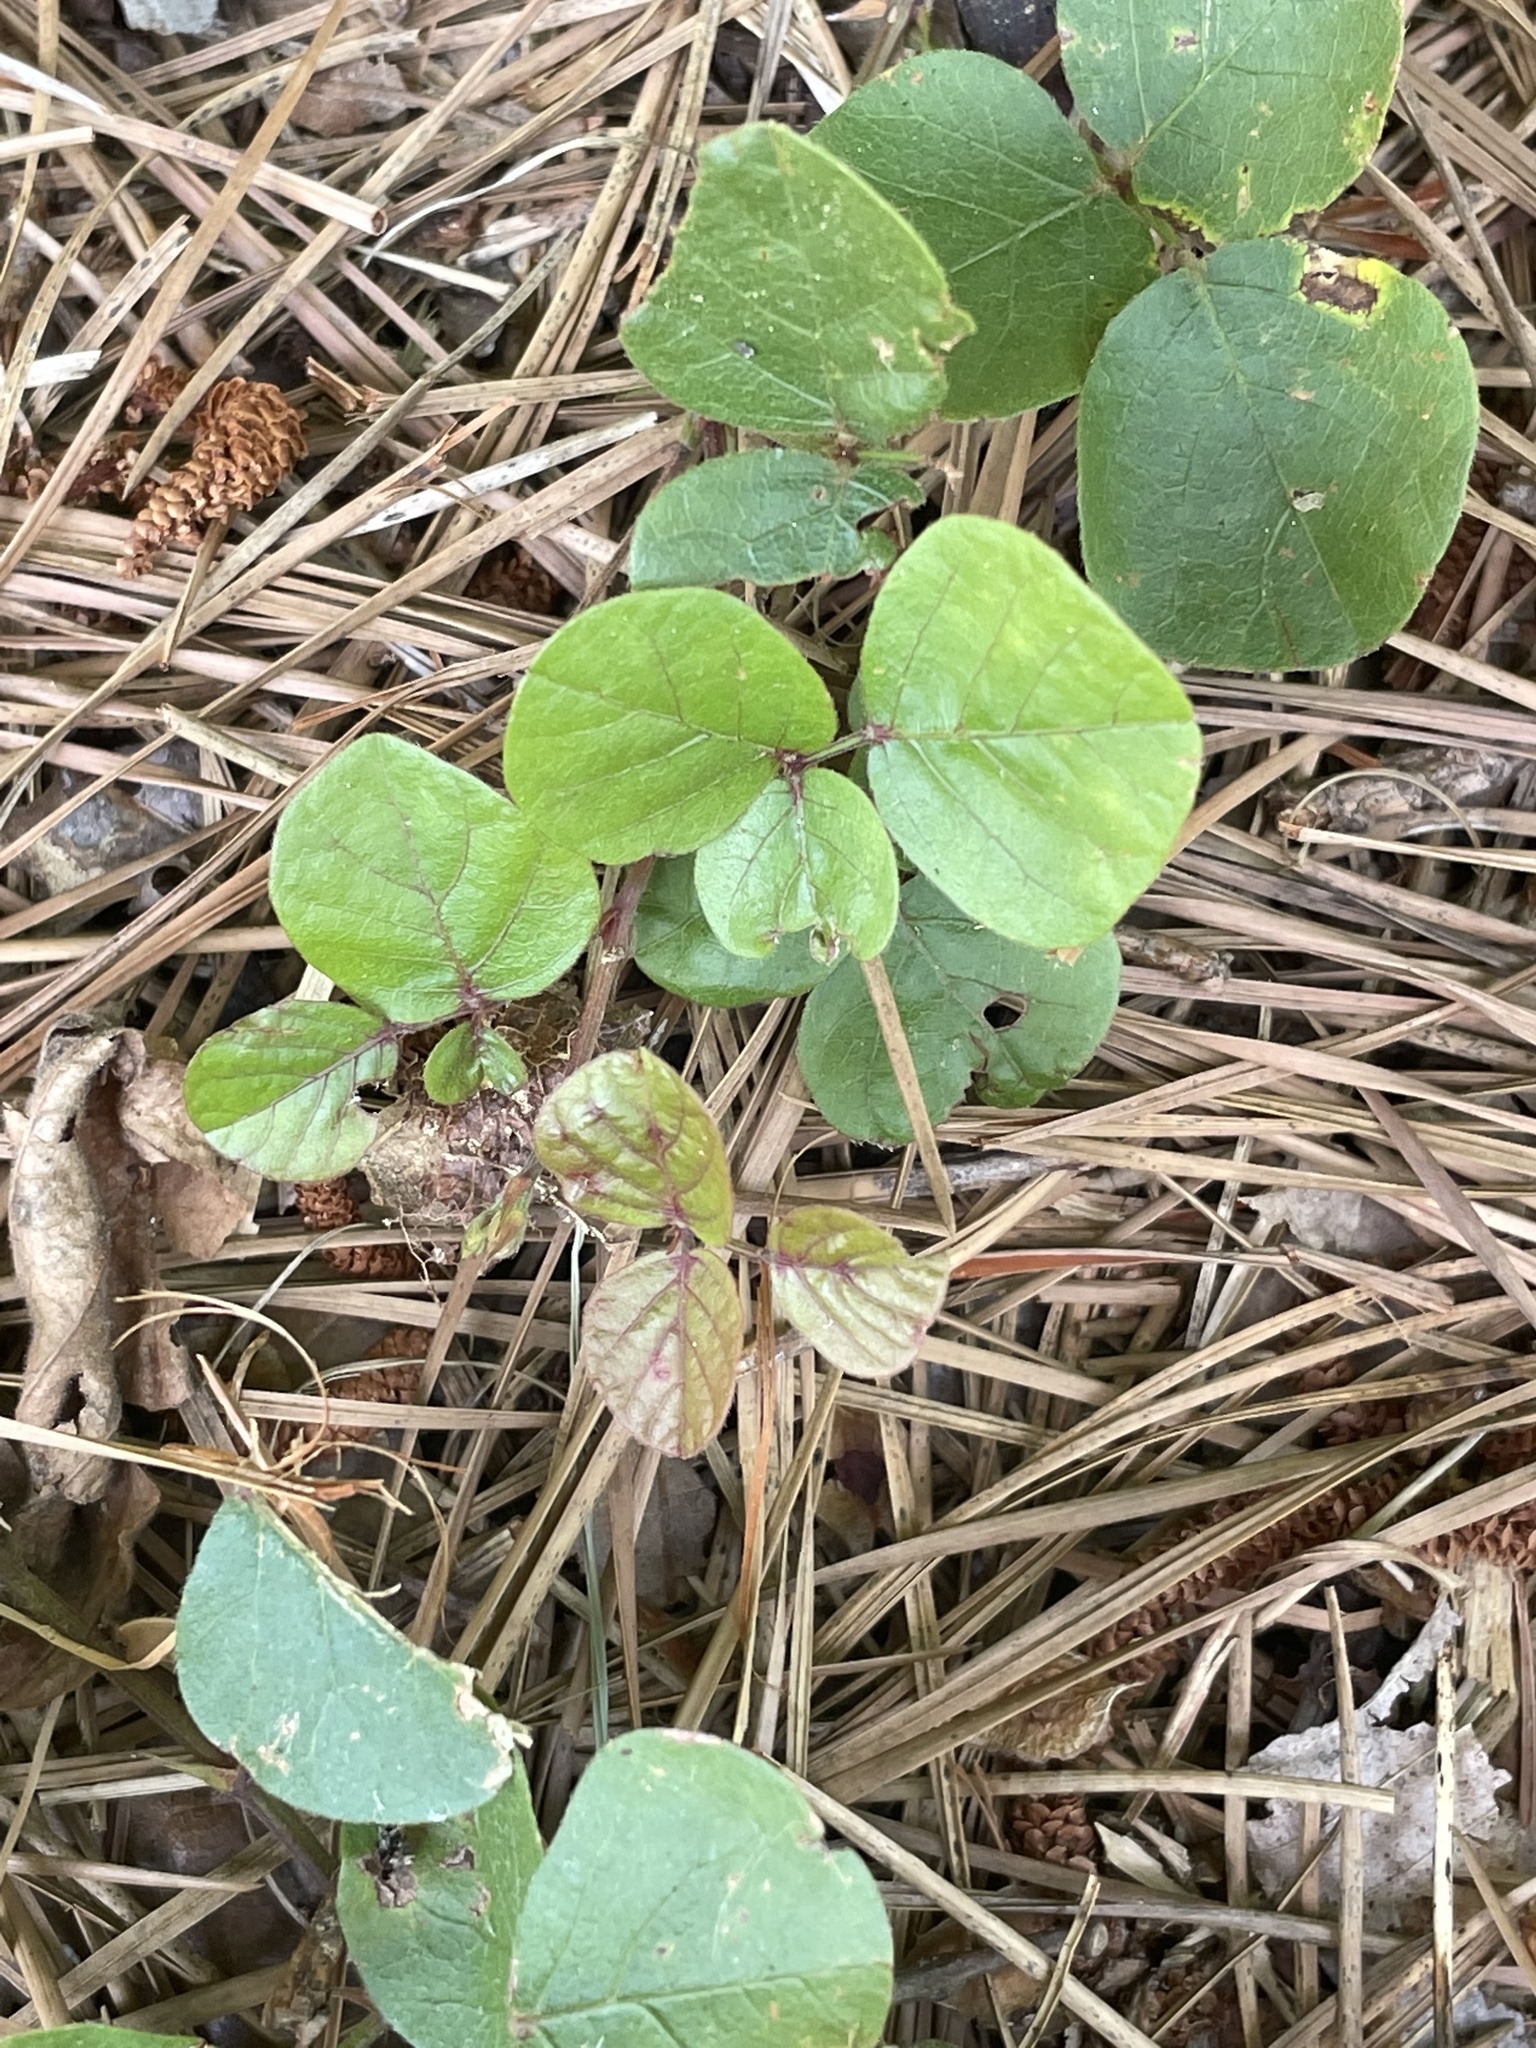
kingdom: Plantae
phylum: Tracheophyta
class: Magnoliopsida
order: Fabales
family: Fabaceae
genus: Desmodium
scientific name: Desmodium lineatum
